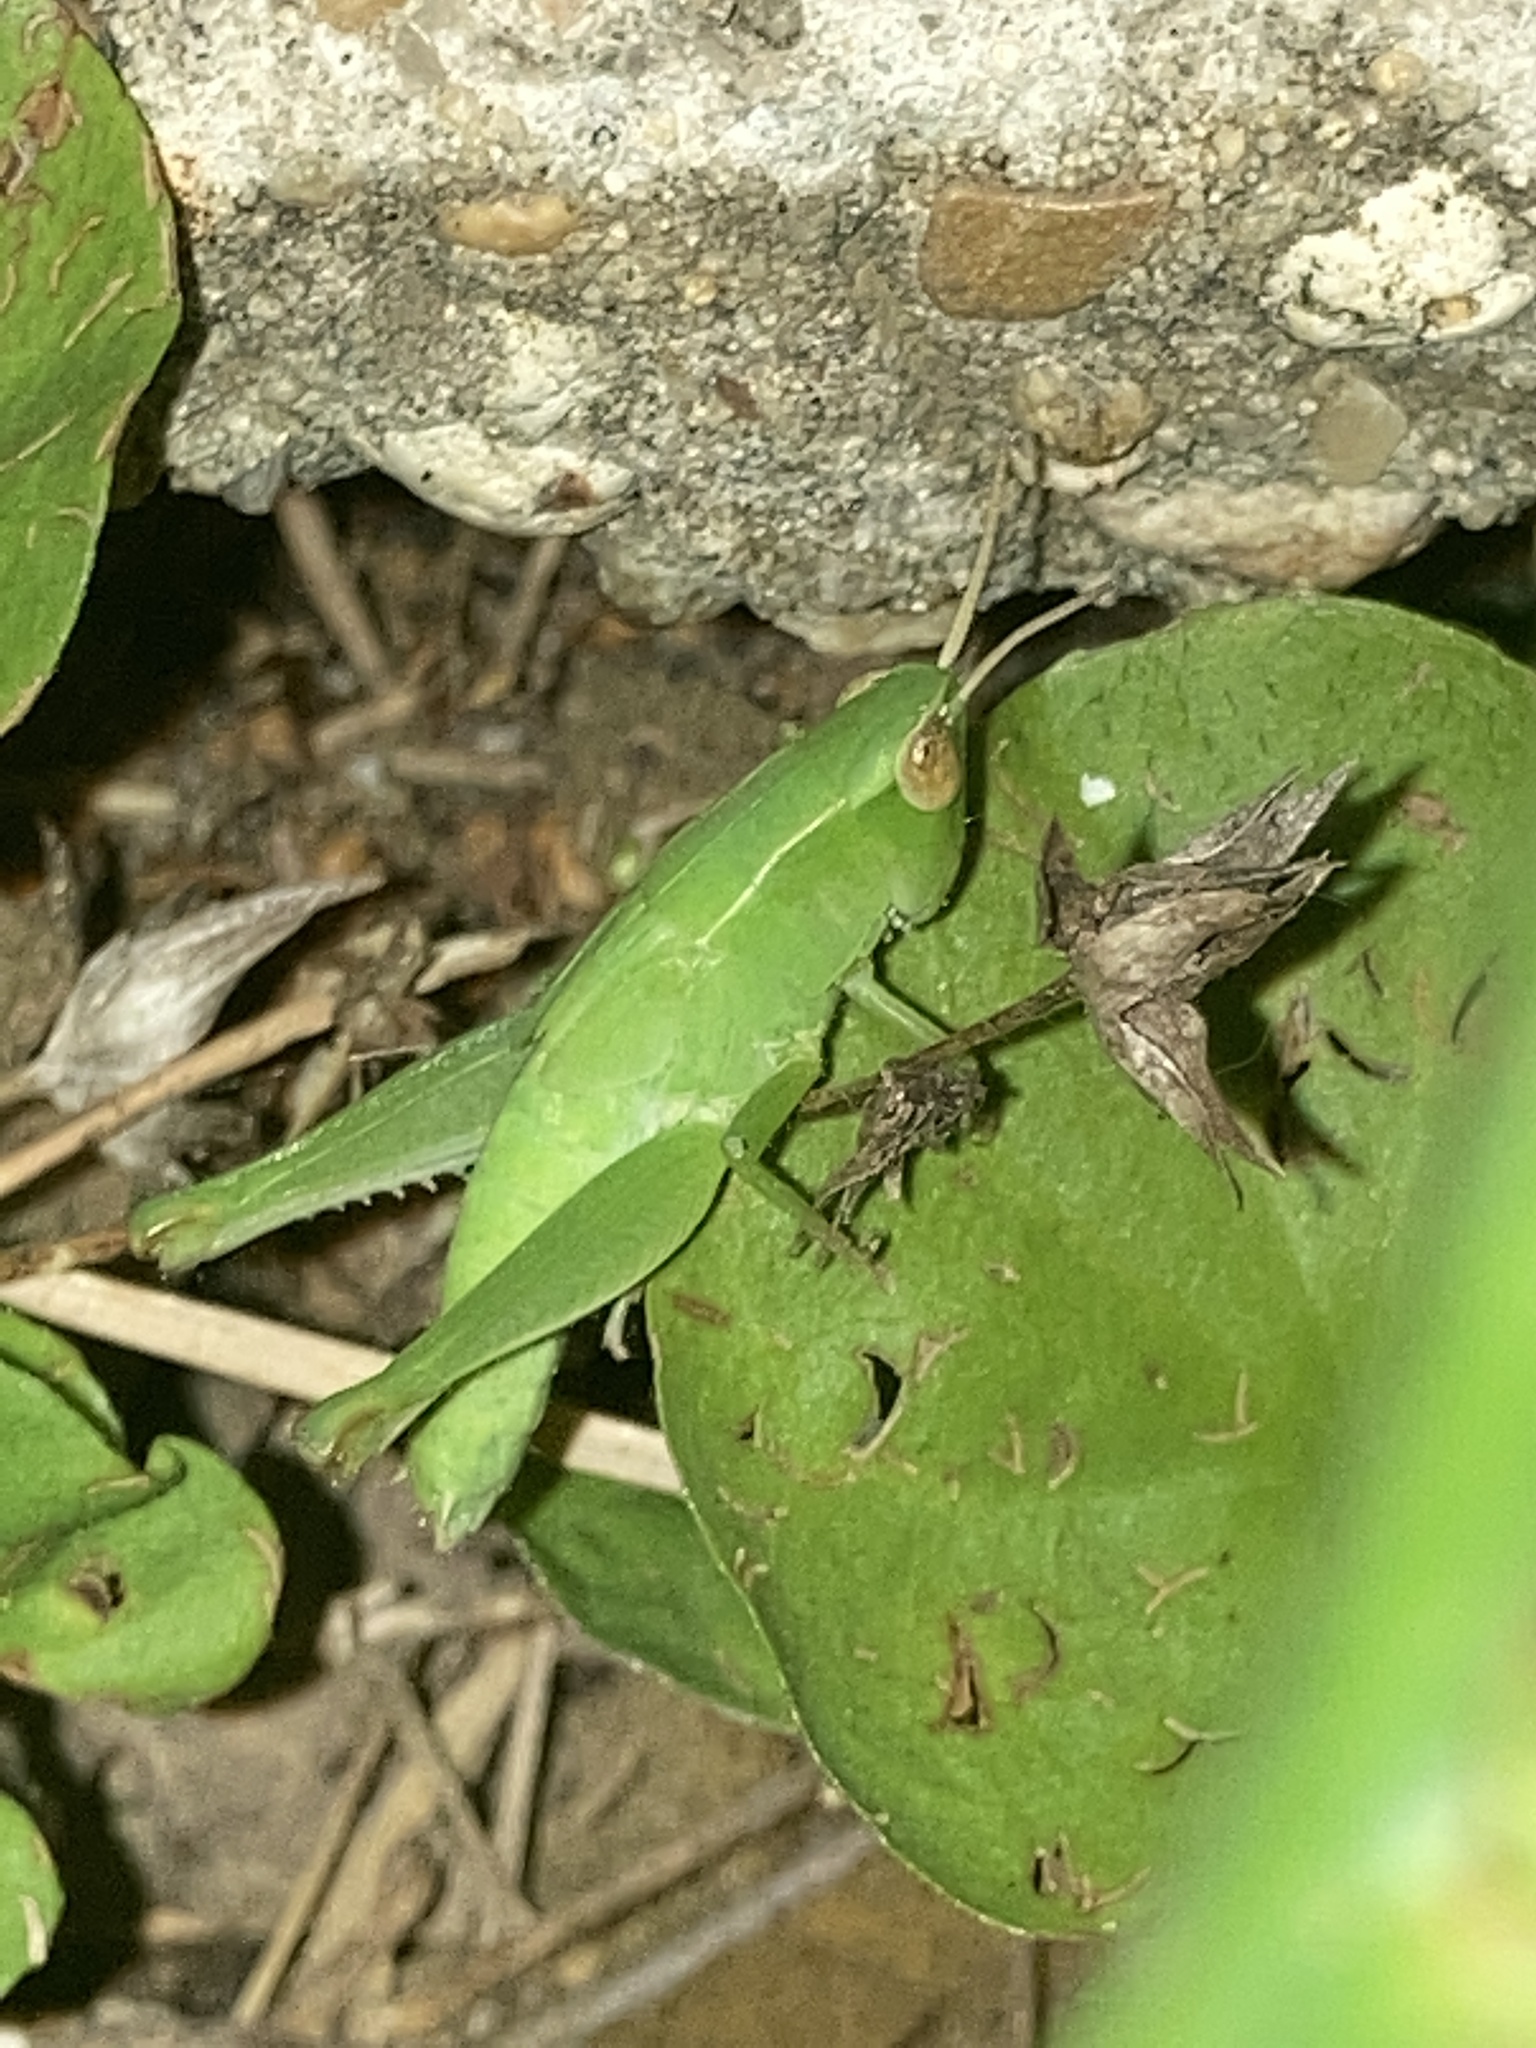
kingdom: Animalia
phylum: Arthropoda
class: Insecta
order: Orthoptera
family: Acrididae
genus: Dichromorpha
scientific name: Dichromorpha viridis
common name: Short-winged green grasshopper
